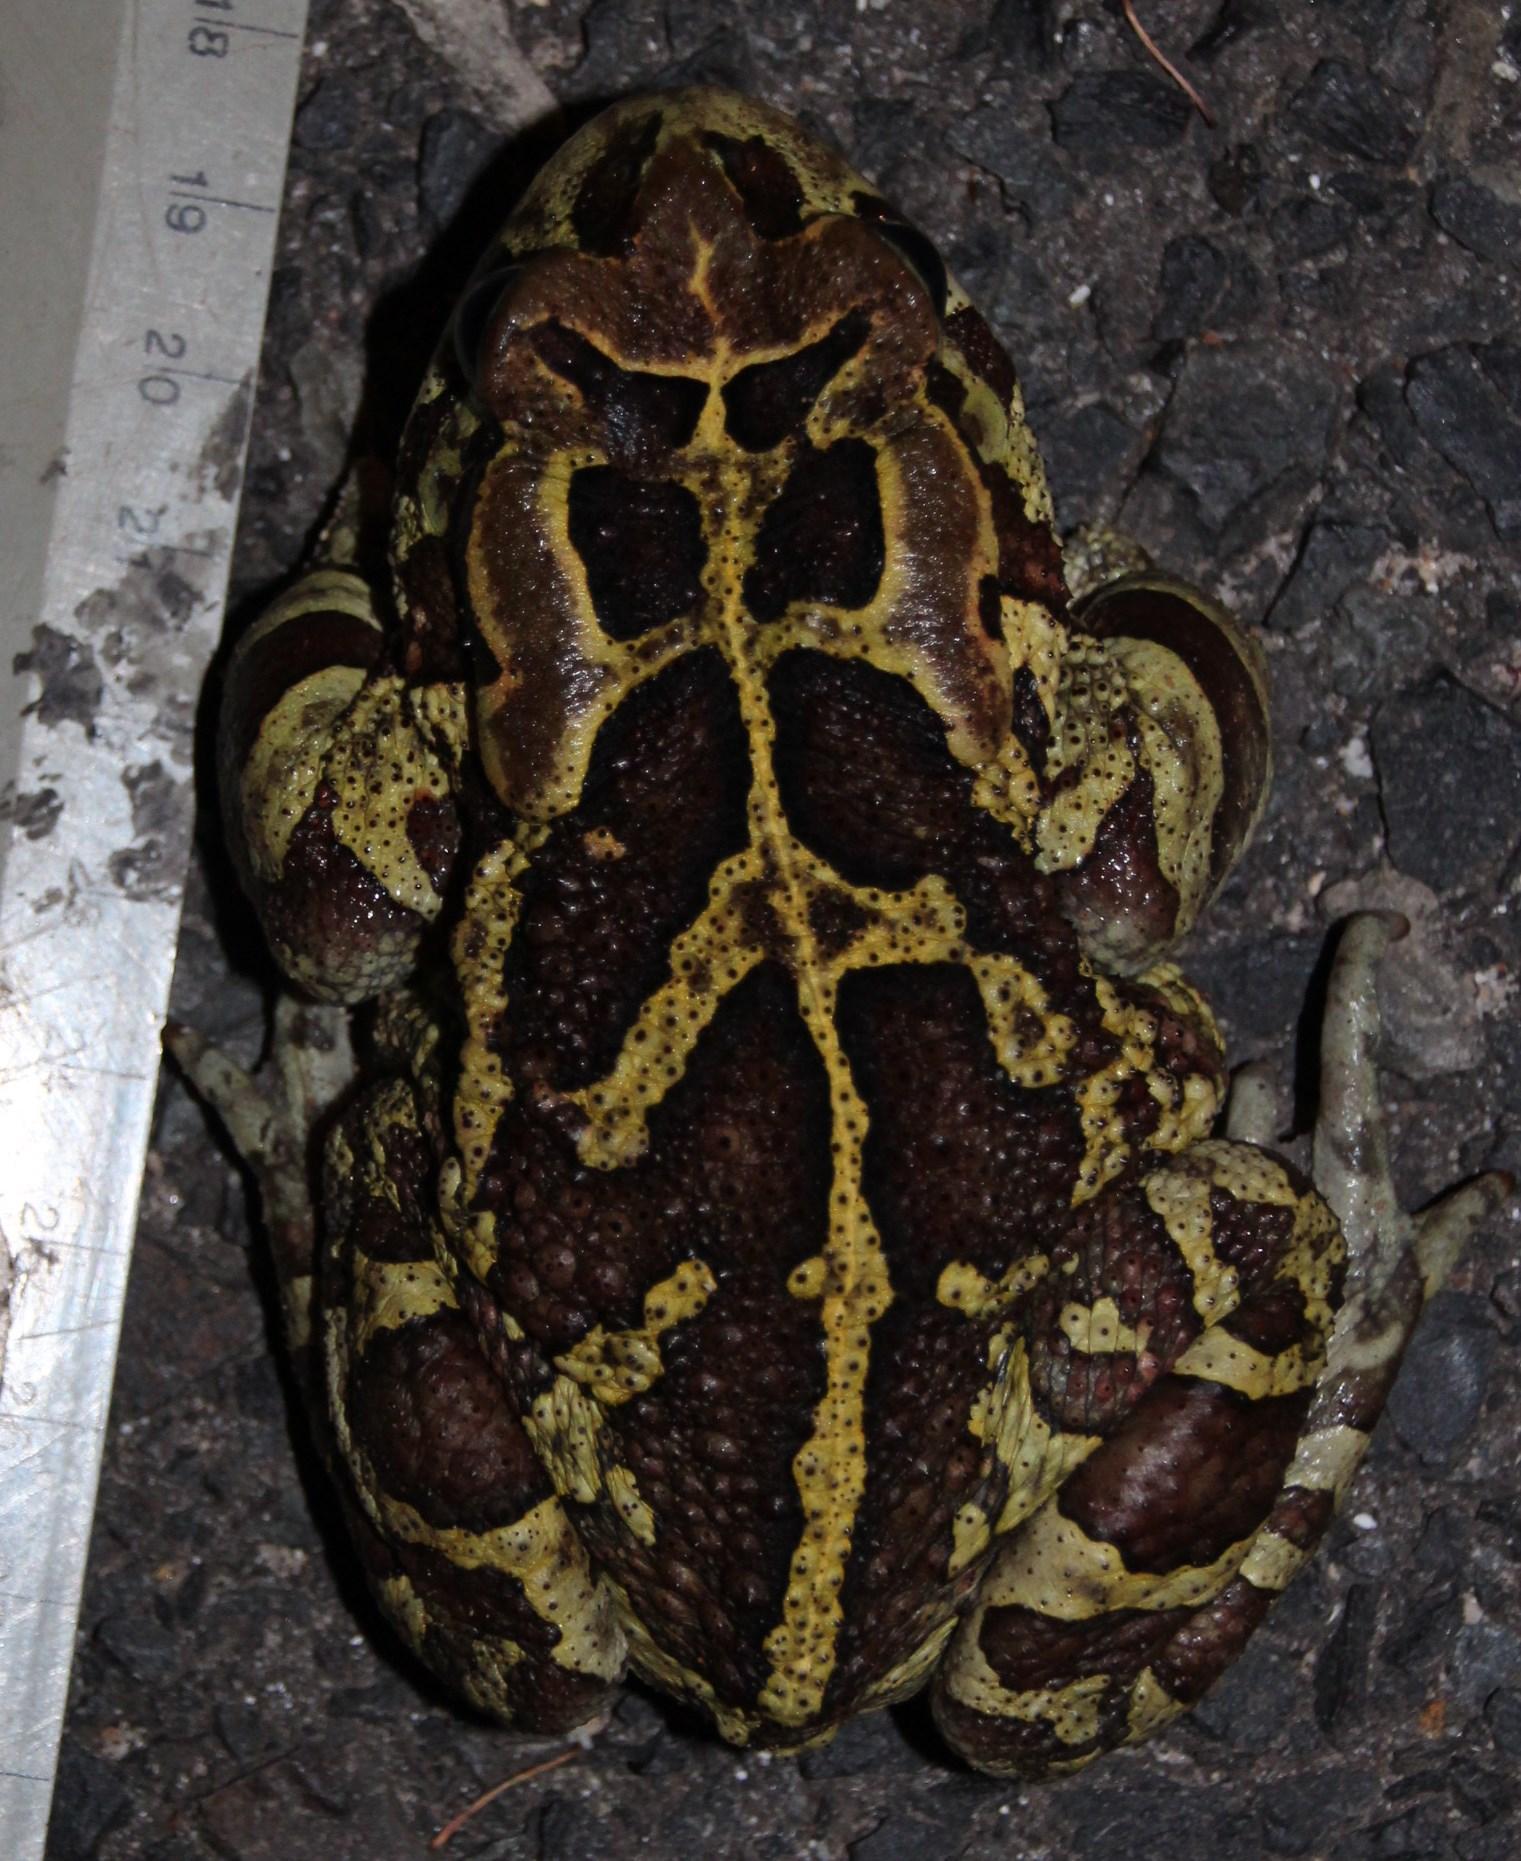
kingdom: Animalia
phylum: Chordata
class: Amphibia
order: Anura
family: Bufonidae
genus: Sclerophrys
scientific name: Sclerophrys pantherina
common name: Panther toad
